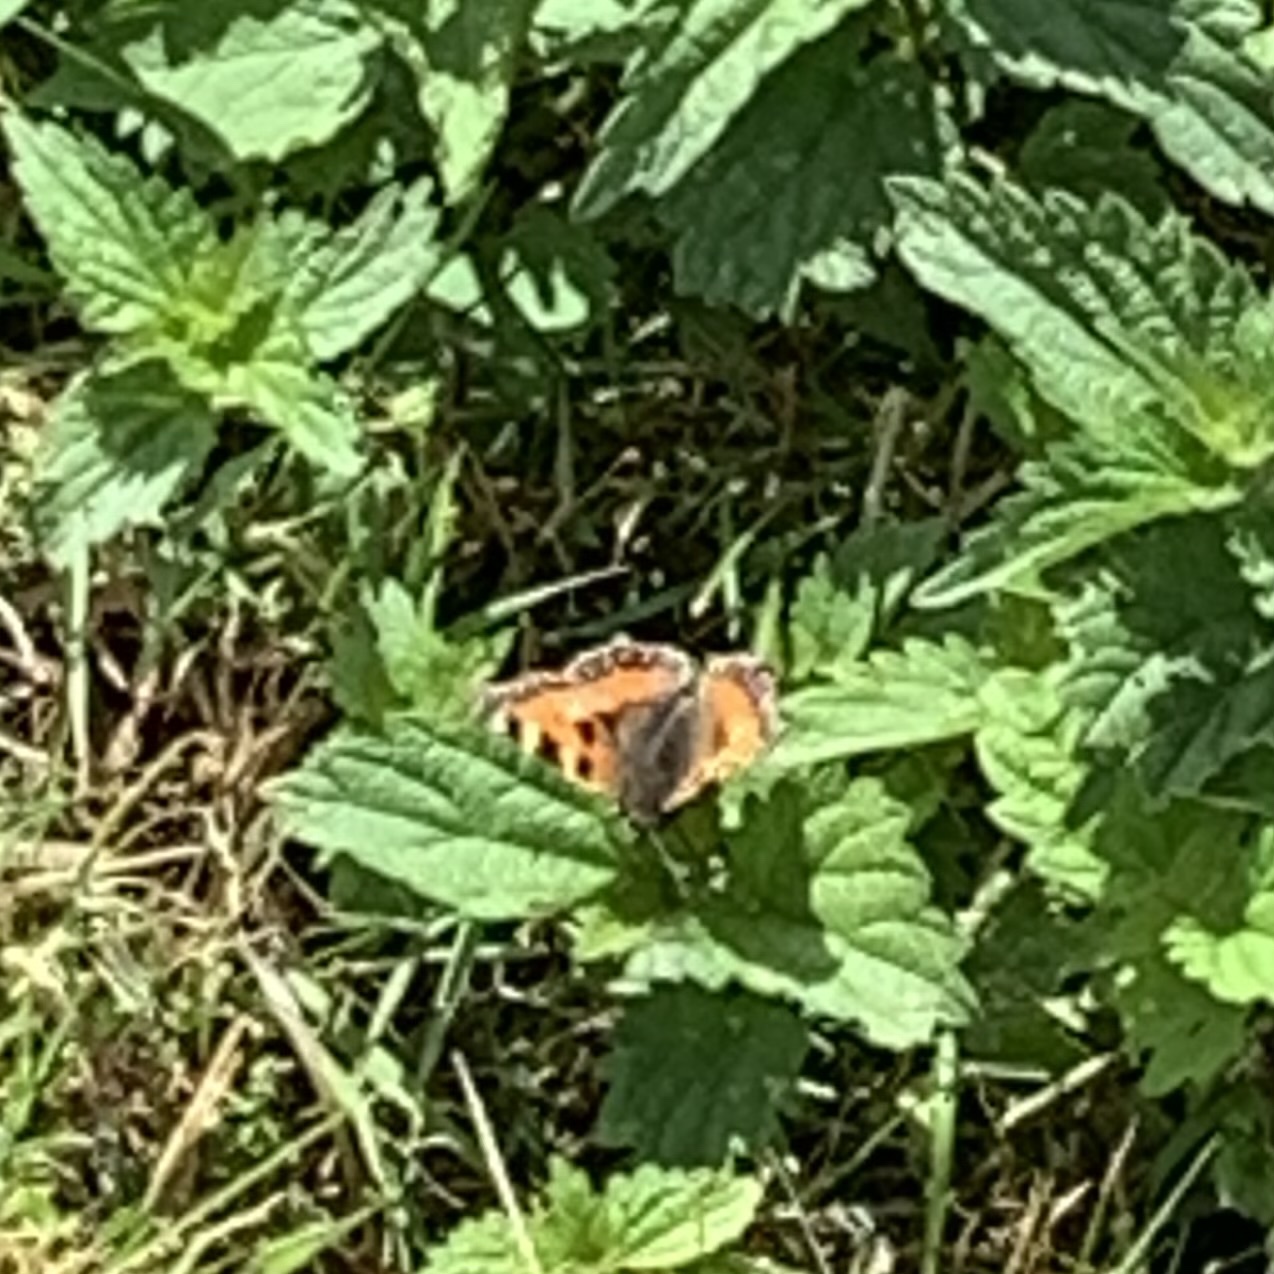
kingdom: Animalia
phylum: Arthropoda
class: Insecta
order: Lepidoptera
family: Nymphalidae
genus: Aglais
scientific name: Aglais urticae
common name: Small tortoiseshell
